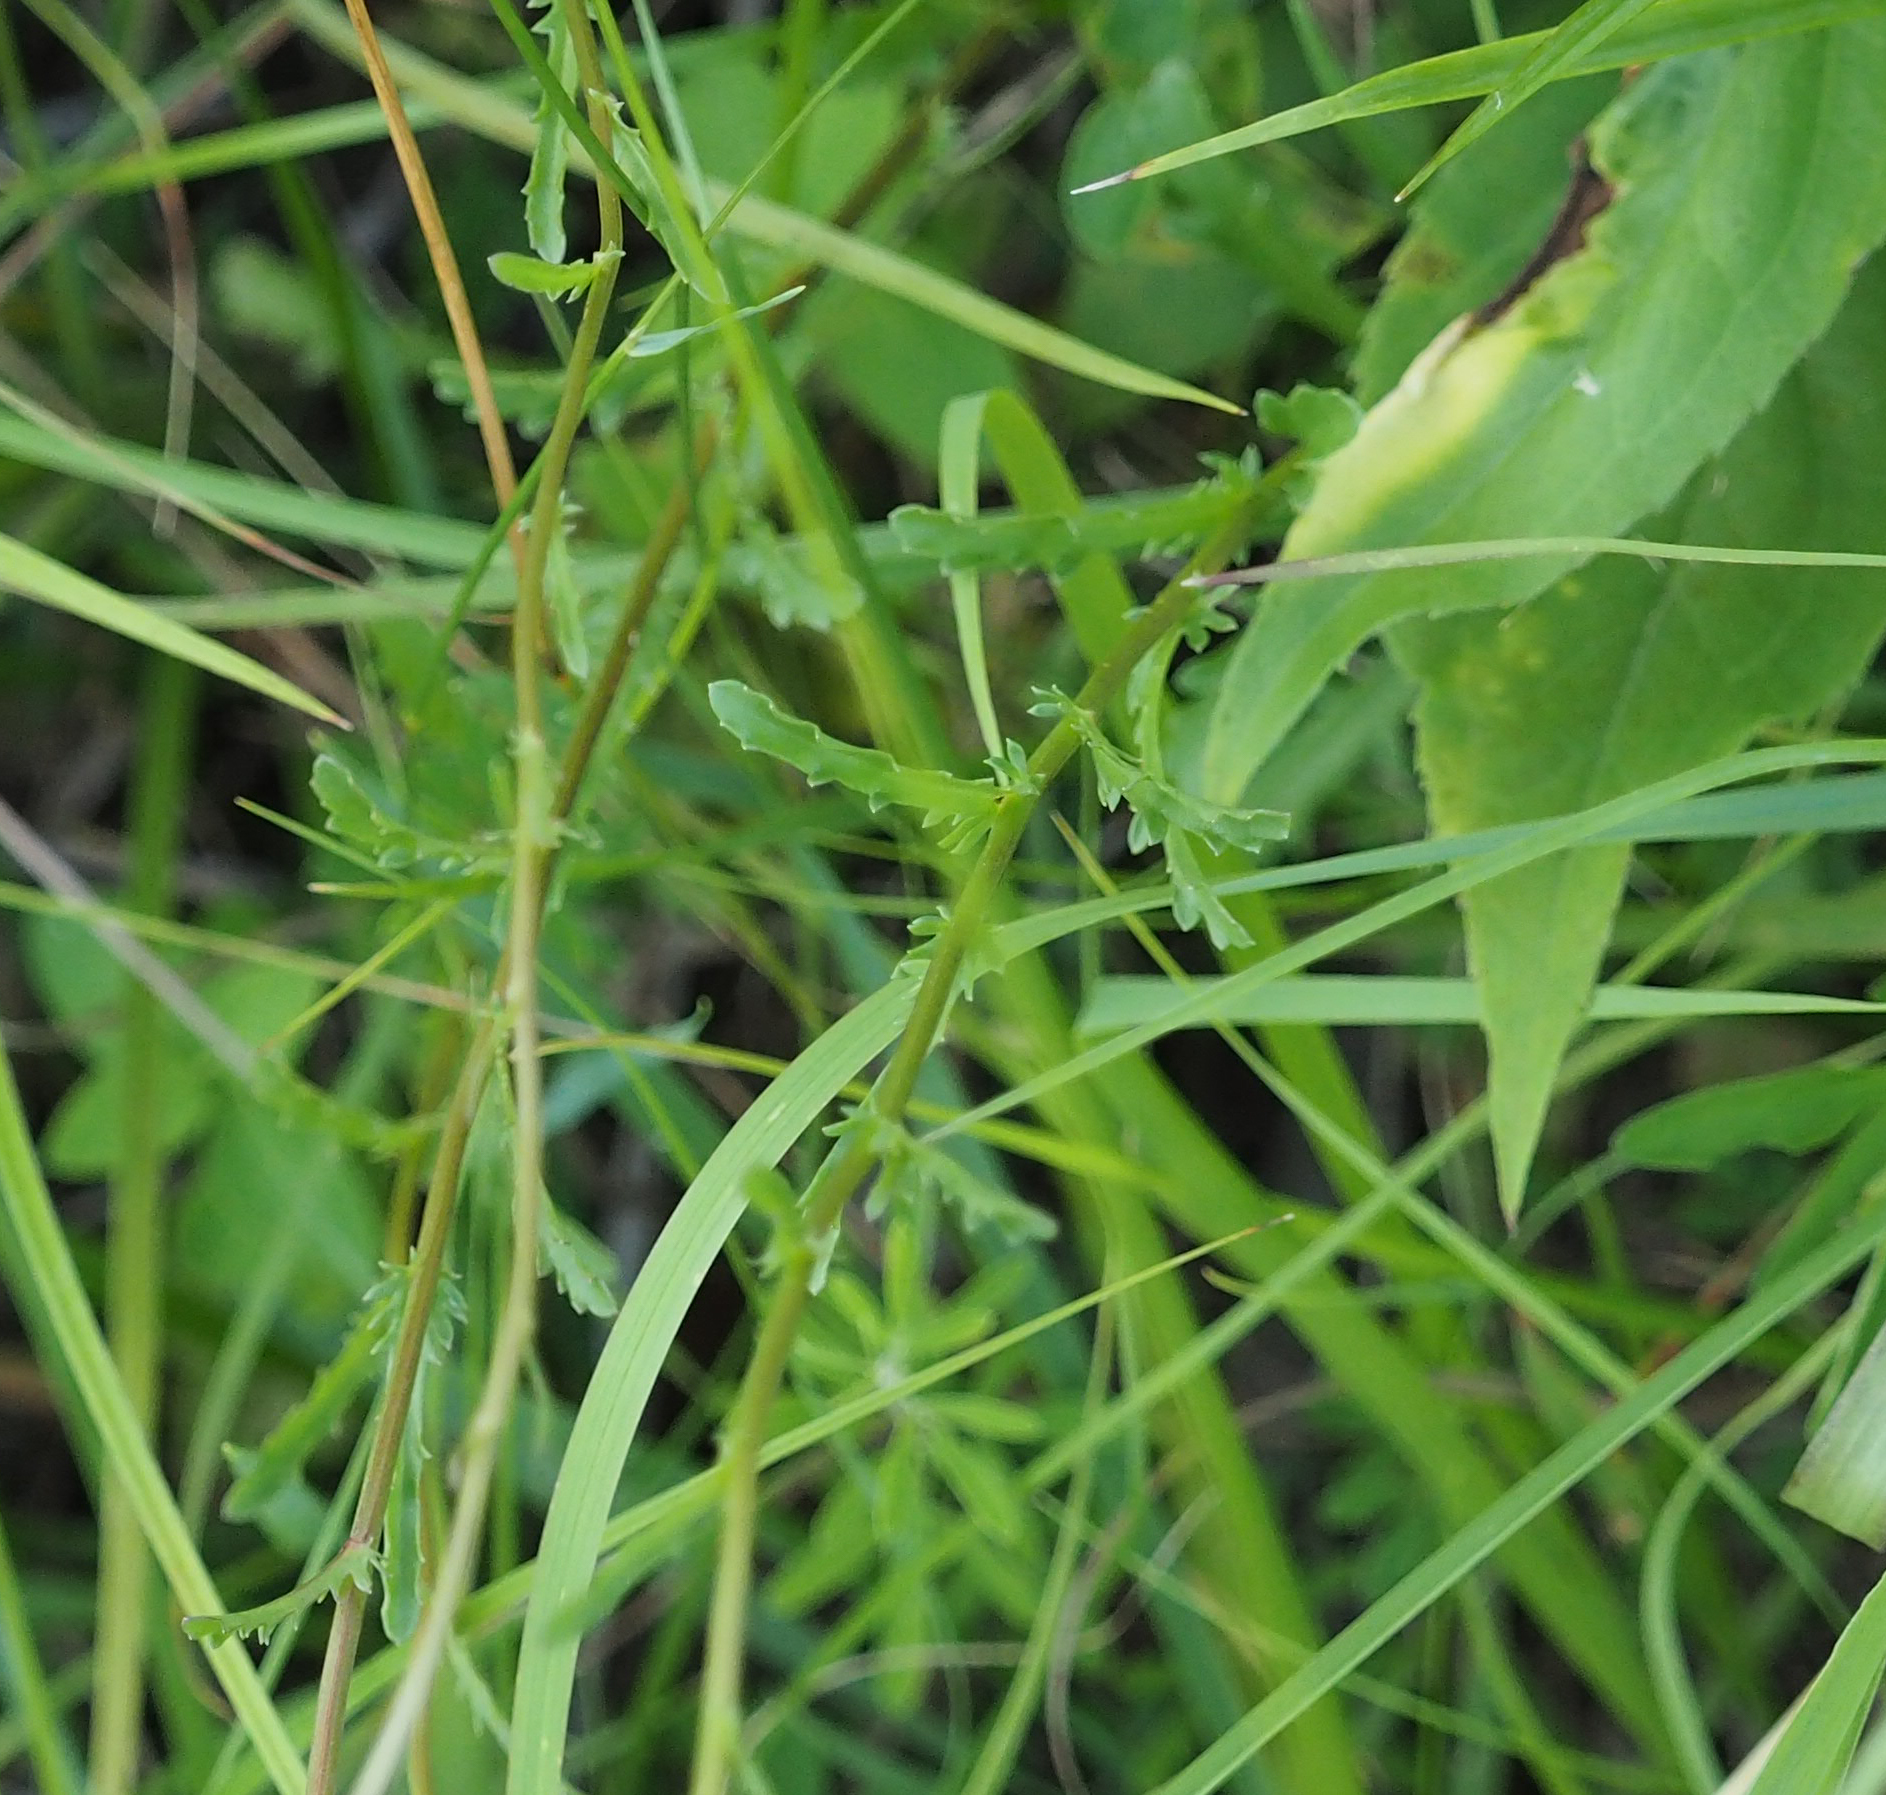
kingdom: Plantae
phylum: Tracheophyta
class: Magnoliopsida
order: Asterales
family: Asteraceae
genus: Leucanthemum
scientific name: Leucanthemum vulgare
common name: Oxeye daisy
